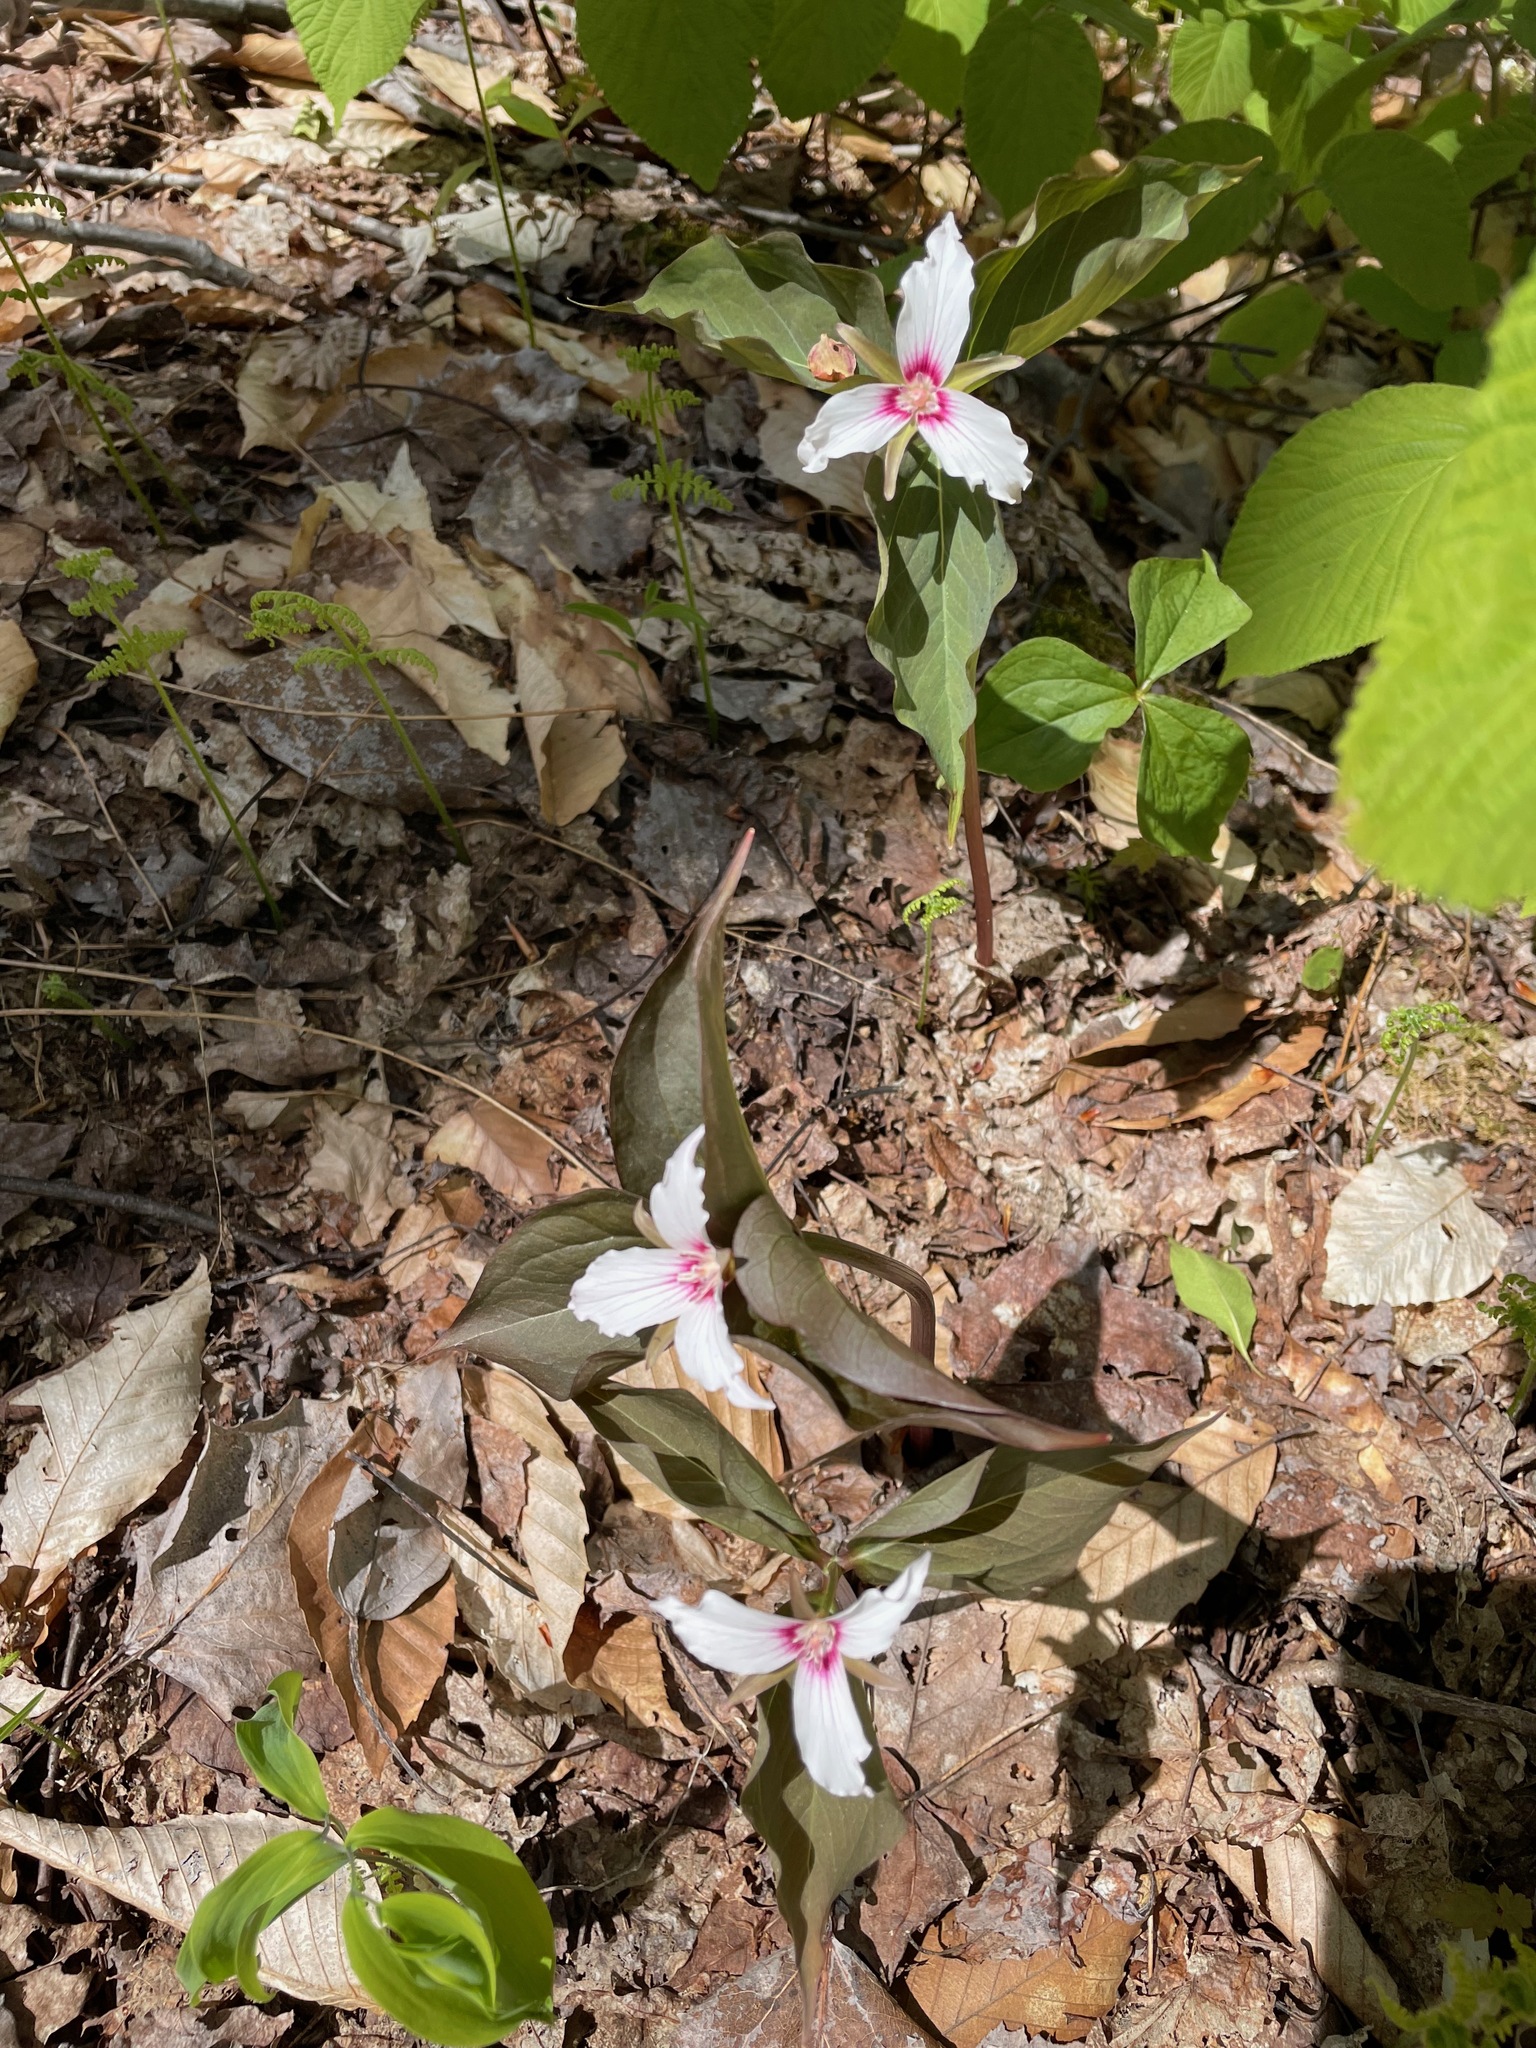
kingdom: Plantae
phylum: Tracheophyta
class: Liliopsida
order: Liliales
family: Melanthiaceae
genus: Trillium
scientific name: Trillium undulatum
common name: Paint trillium
